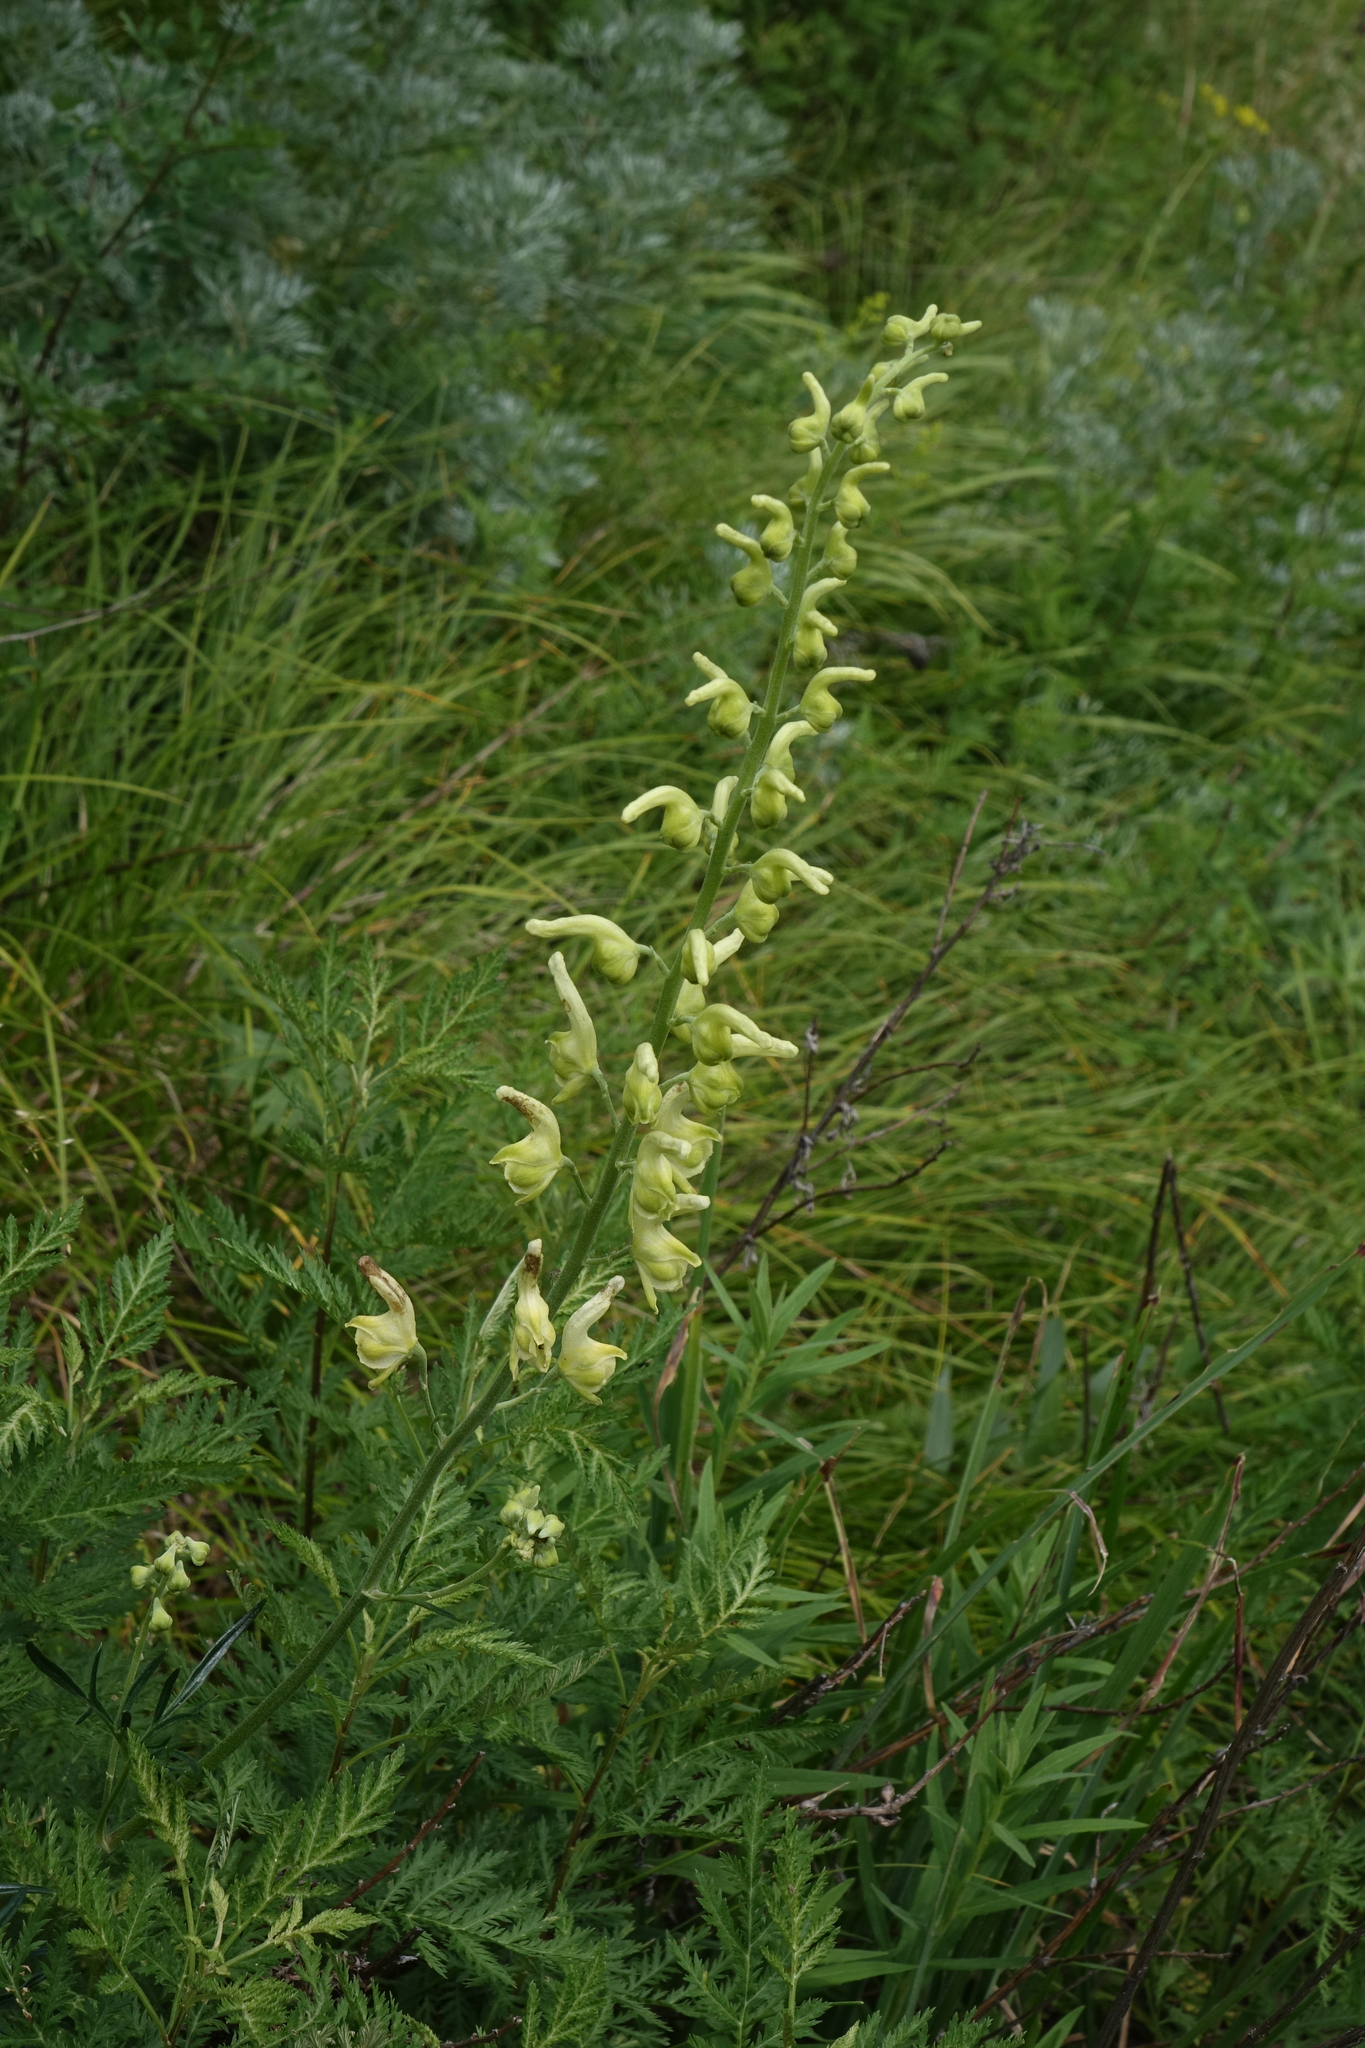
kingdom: Plantae
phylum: Tracheophyta
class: Magnoliopsida
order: Ranunculales
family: Ranunculaceae
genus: Aconitum
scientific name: Aconitum barbatum
